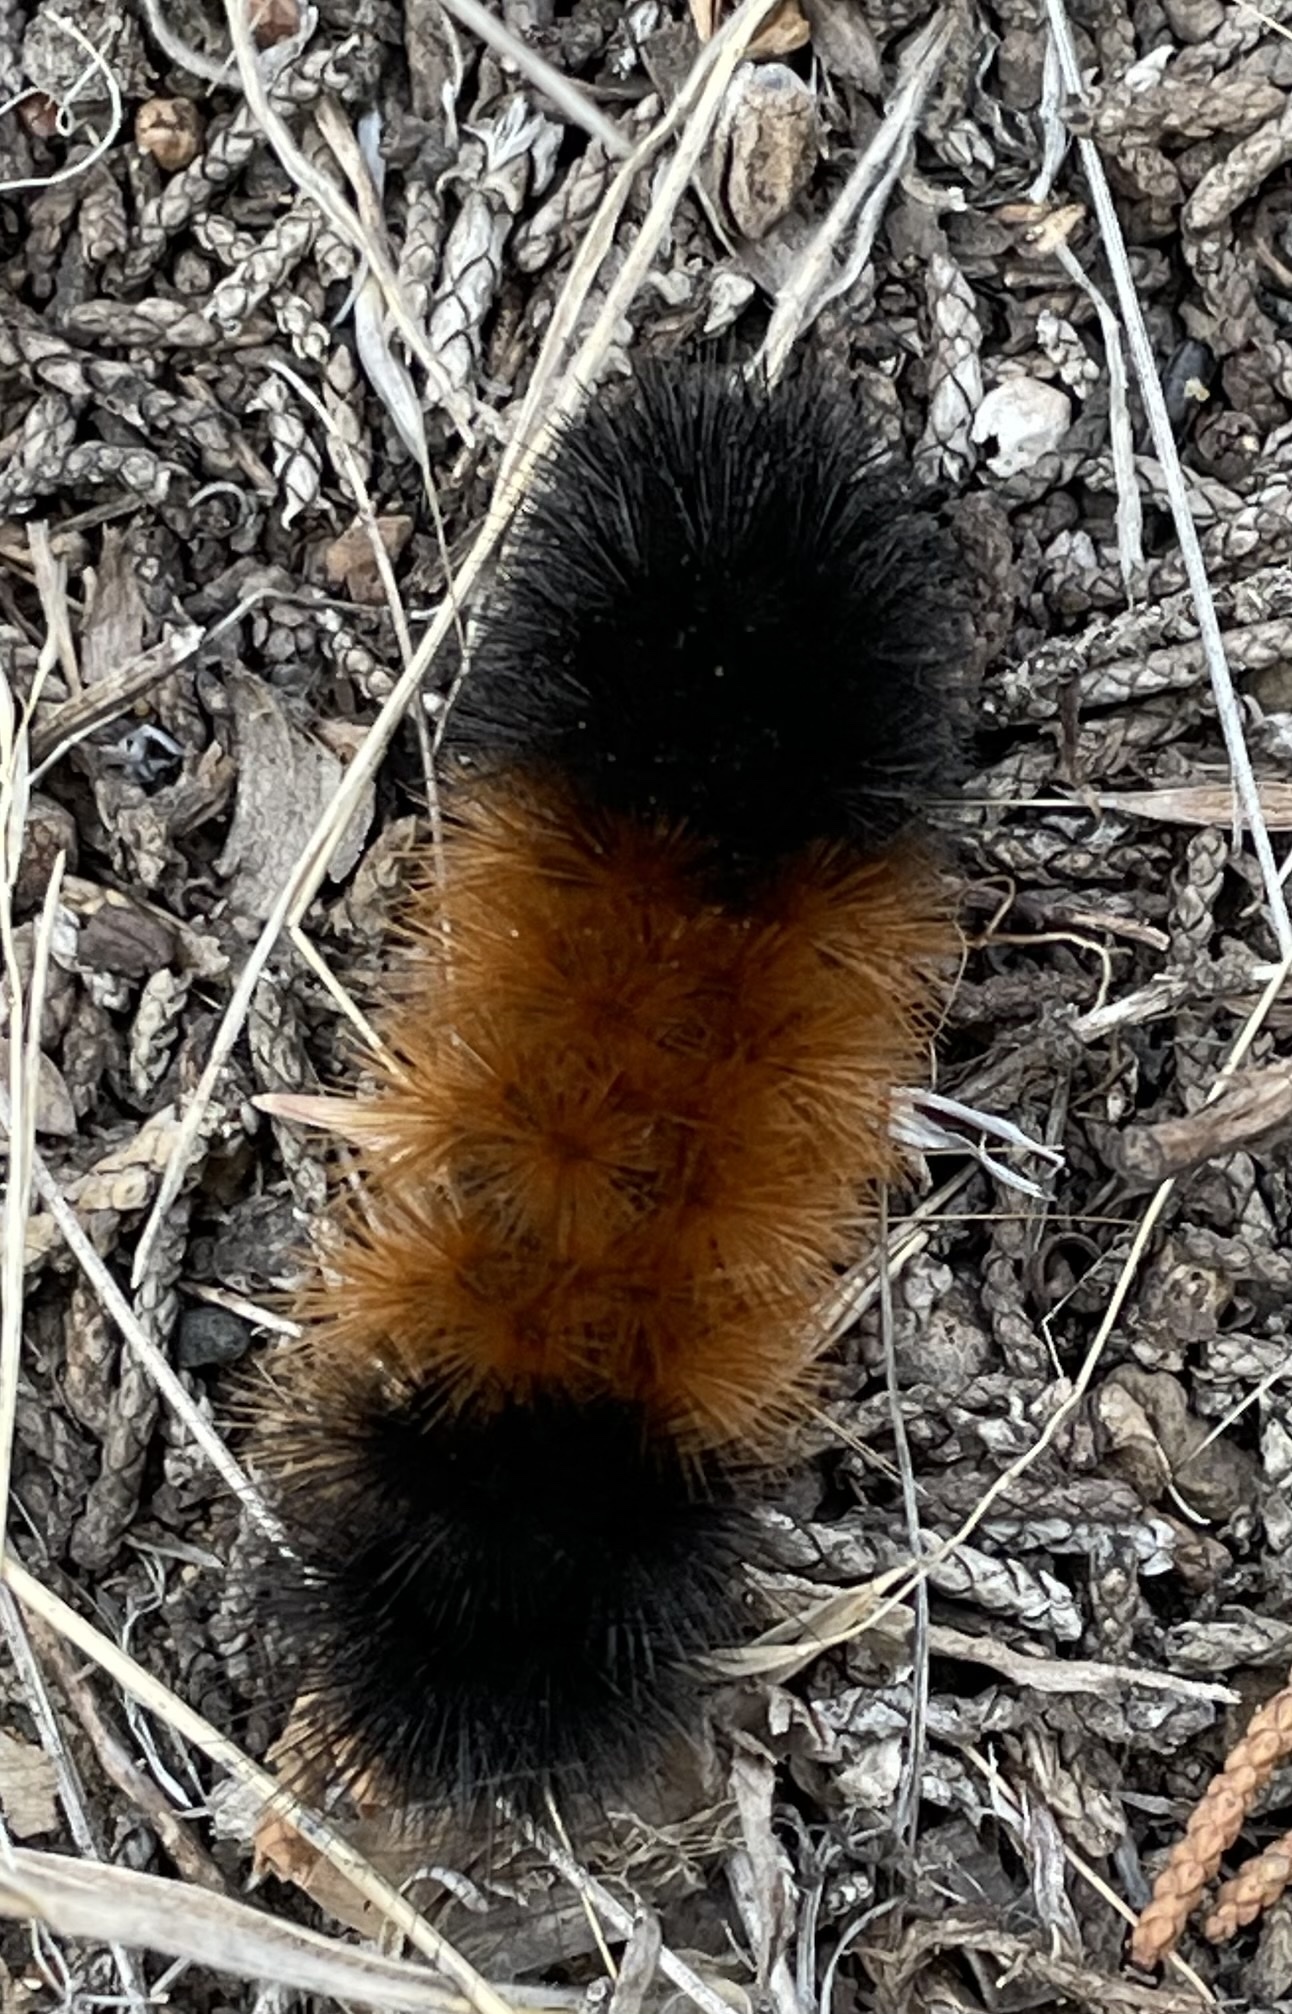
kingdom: Animalia
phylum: Arthropoda
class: Insecta
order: Lepidoptera
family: Erebidae
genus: Pyrrharctia
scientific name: Pyrrharctia isabella
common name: Isabella tiger moth
